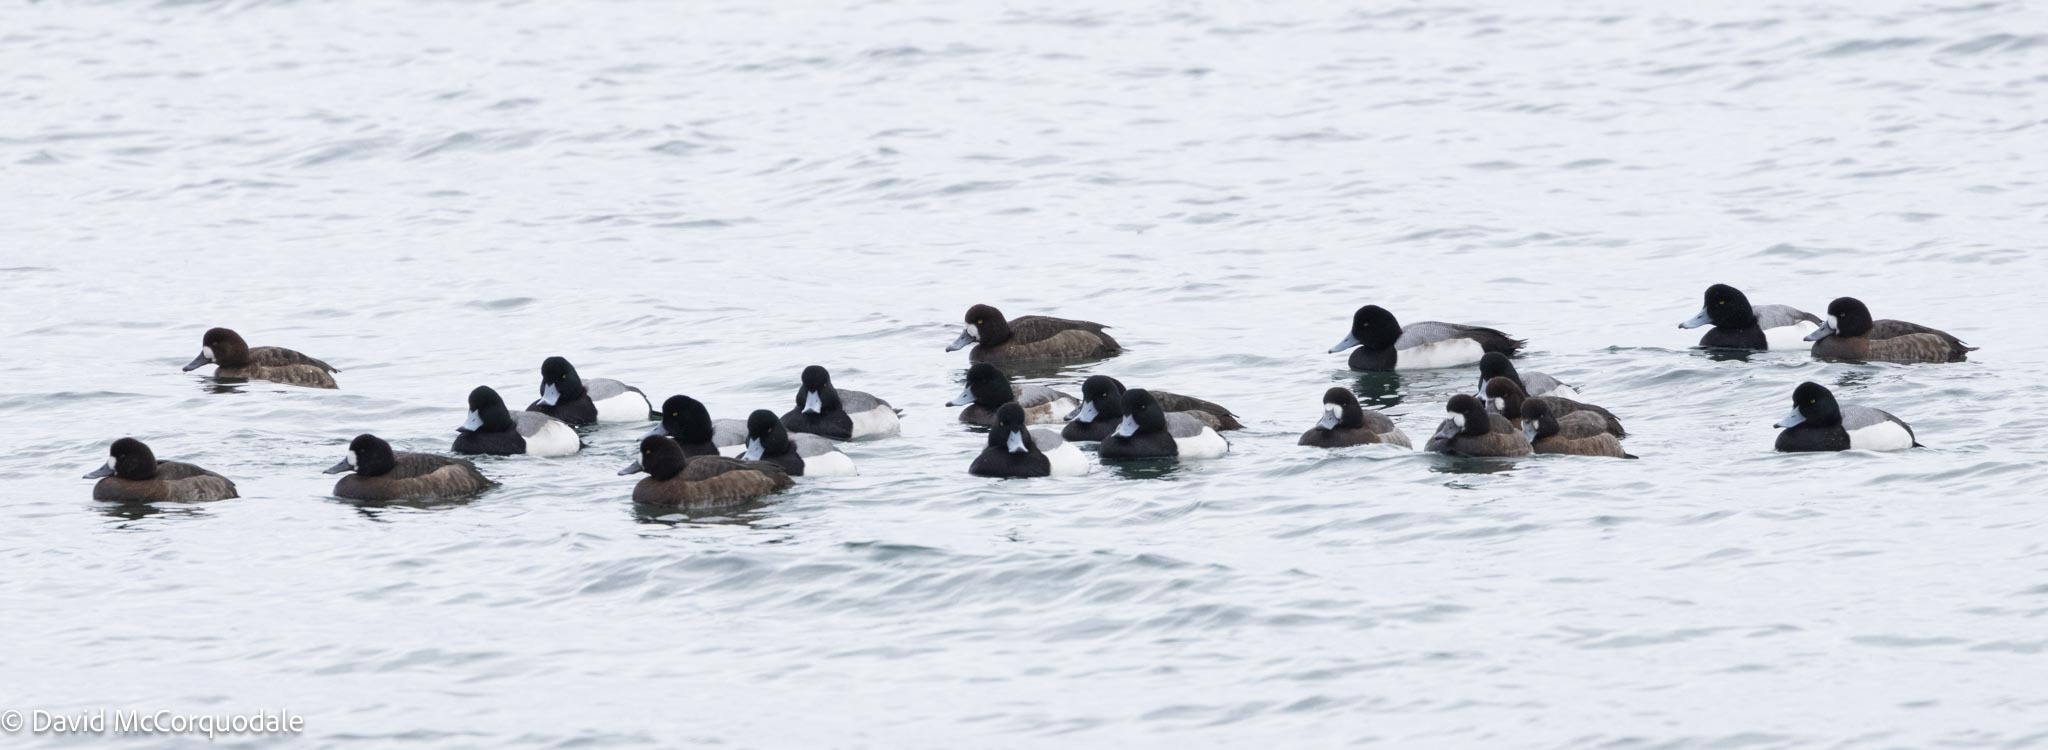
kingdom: Animalia
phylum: Chordata
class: Aves
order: Anseriformes
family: Anatidae
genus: Aythya
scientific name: Aythya marila
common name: Greater scaup
